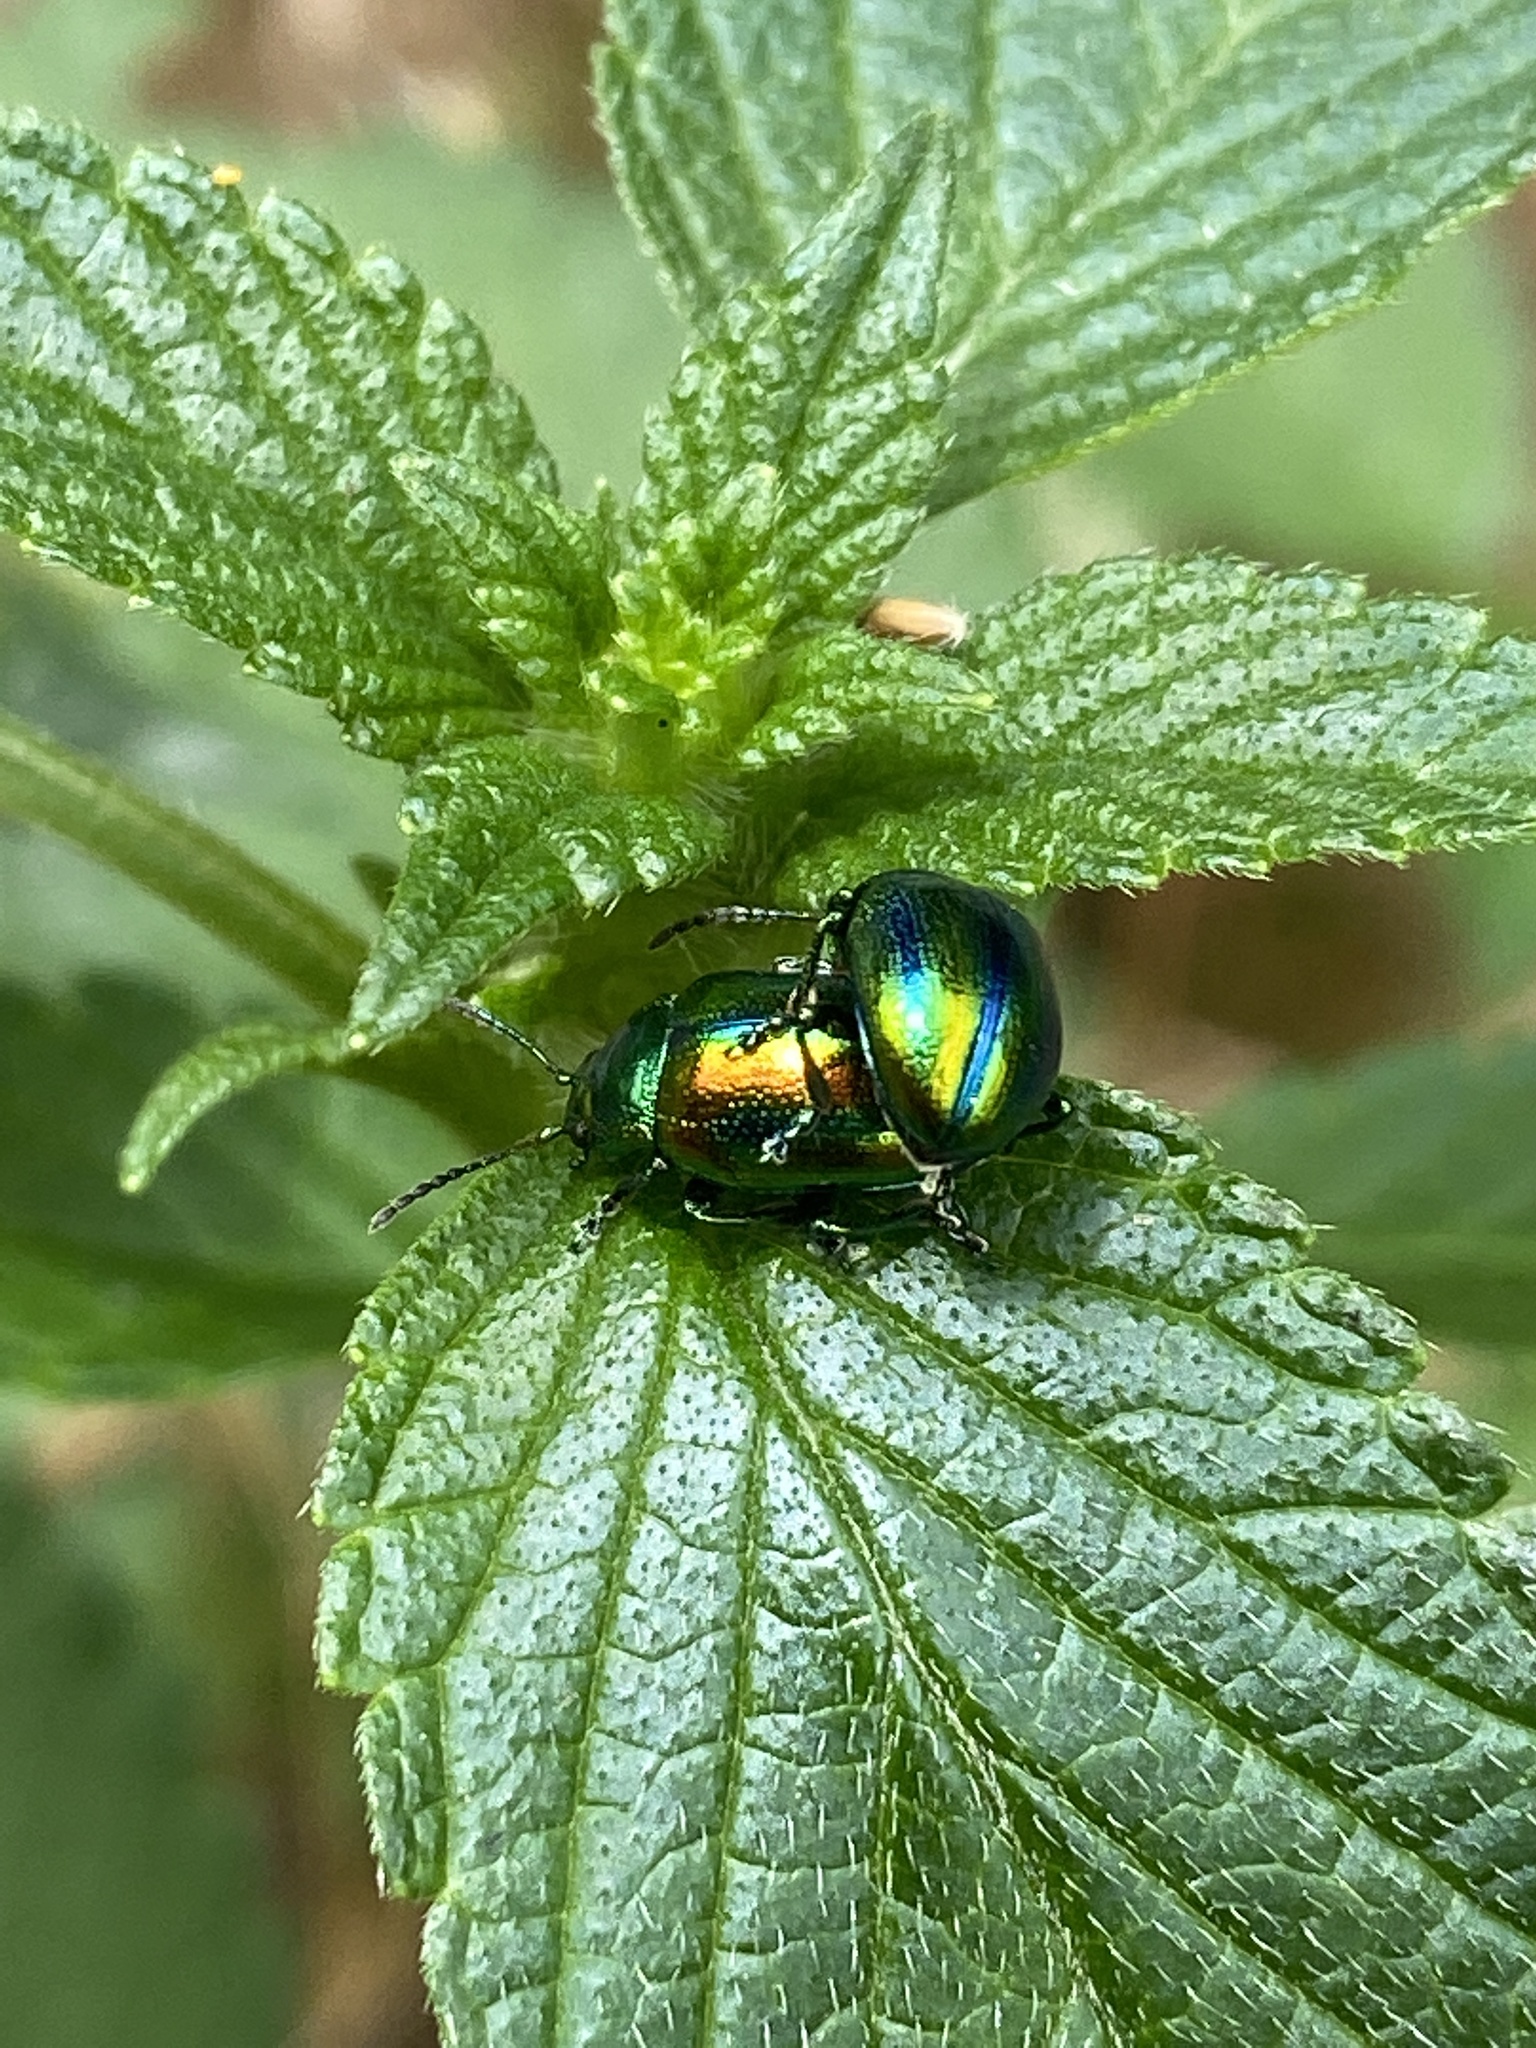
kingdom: Animalia
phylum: Arthropoda
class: Insecta
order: Coleoptera
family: Chrysomelidae
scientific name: Chrysomelidae
